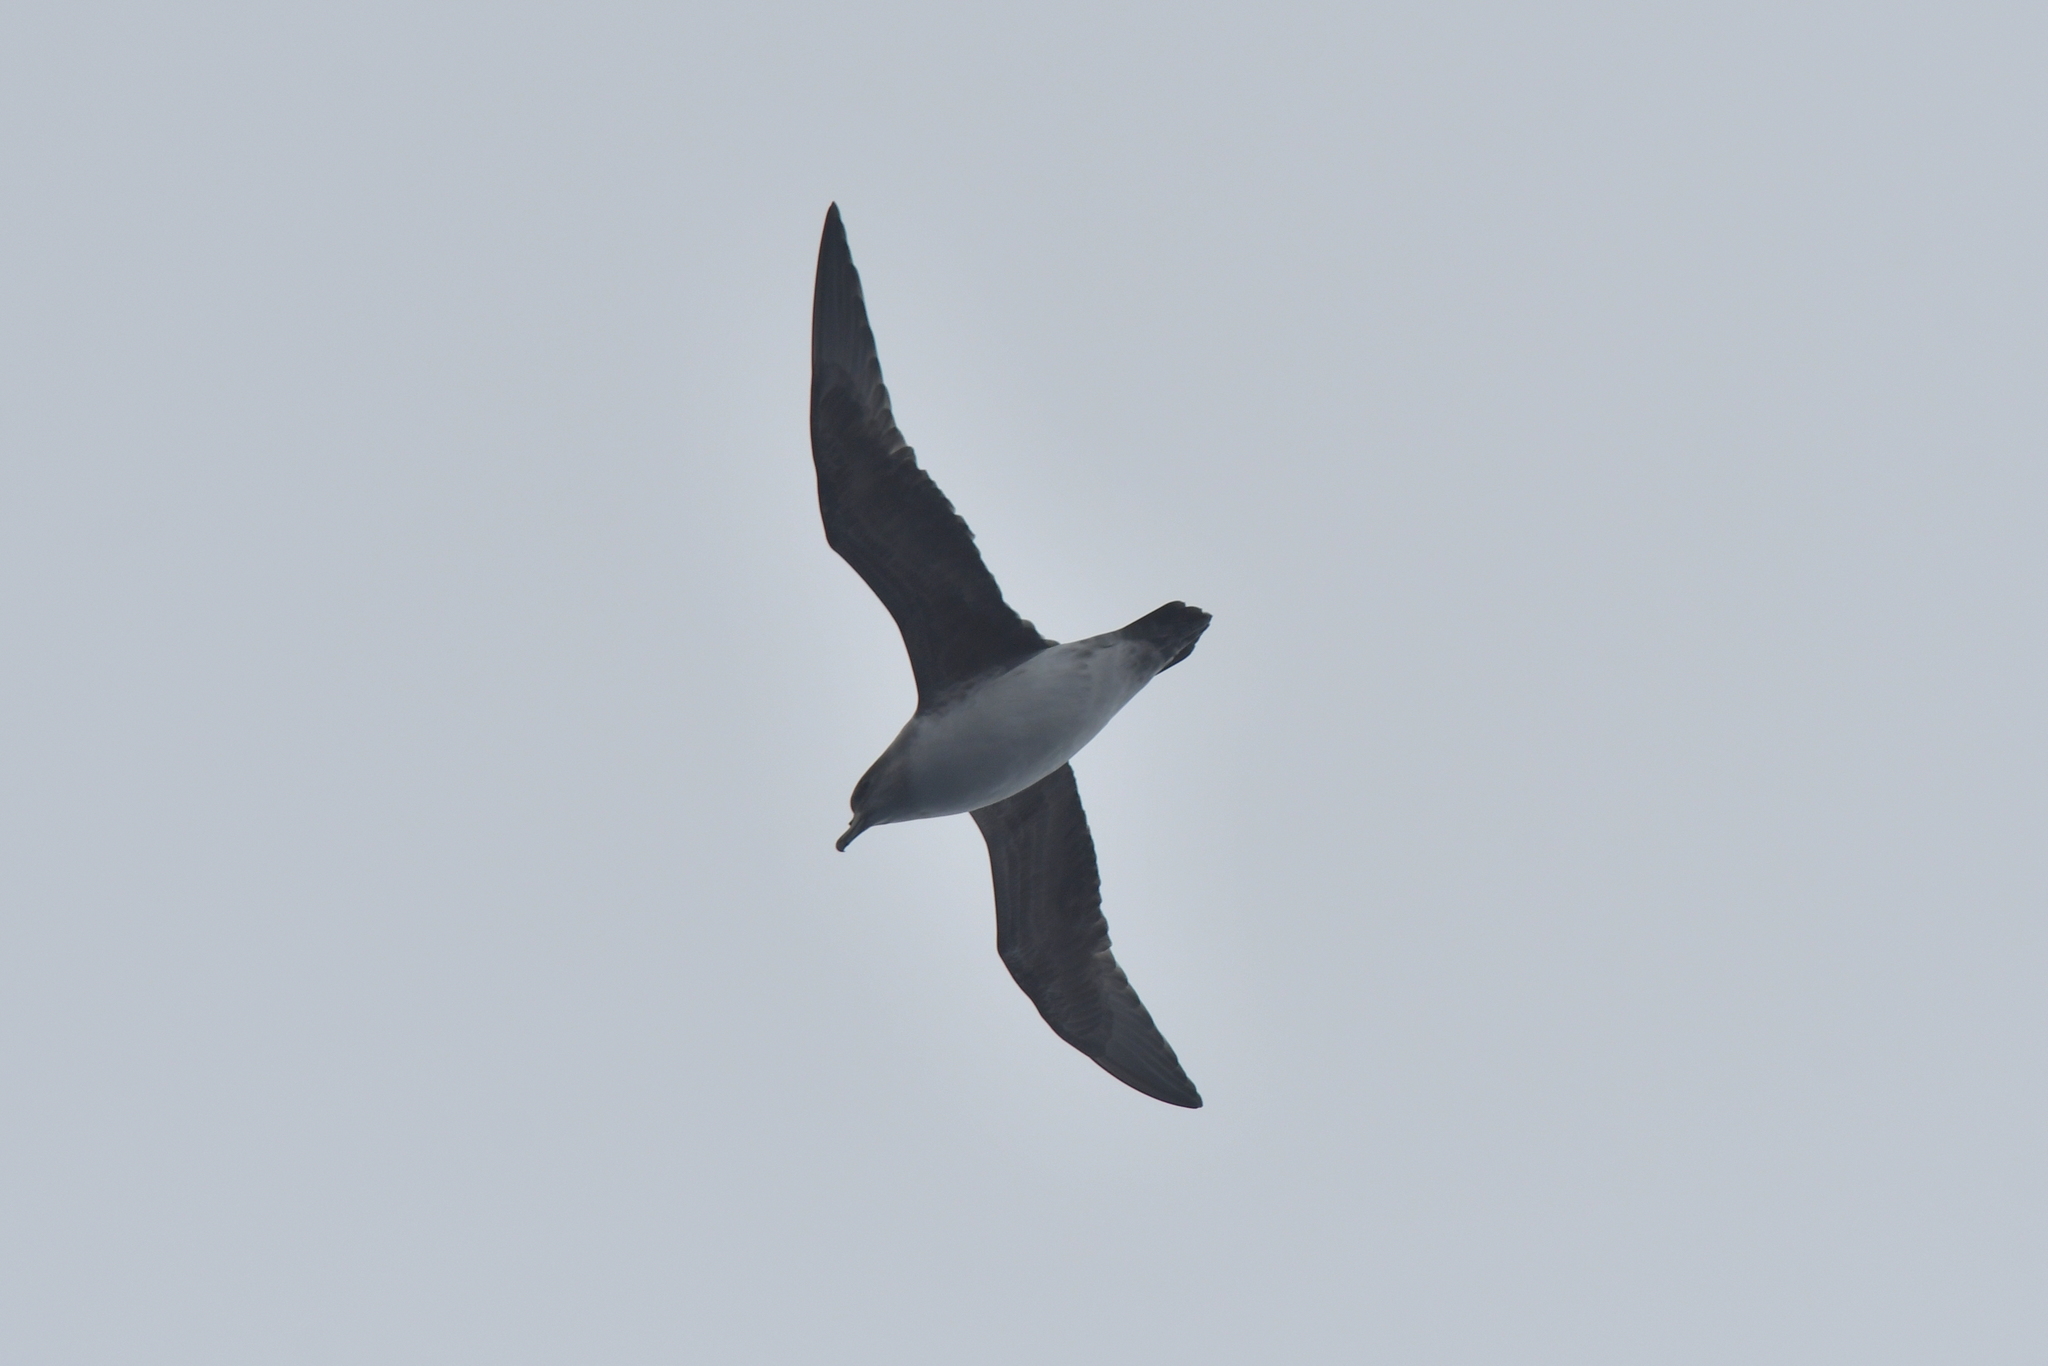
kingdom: Animalia
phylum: Chordata
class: Aves
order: Procellariiformes
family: Procellariidae
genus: Procellaria
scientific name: Procellaria cinerea
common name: Grey petrel
